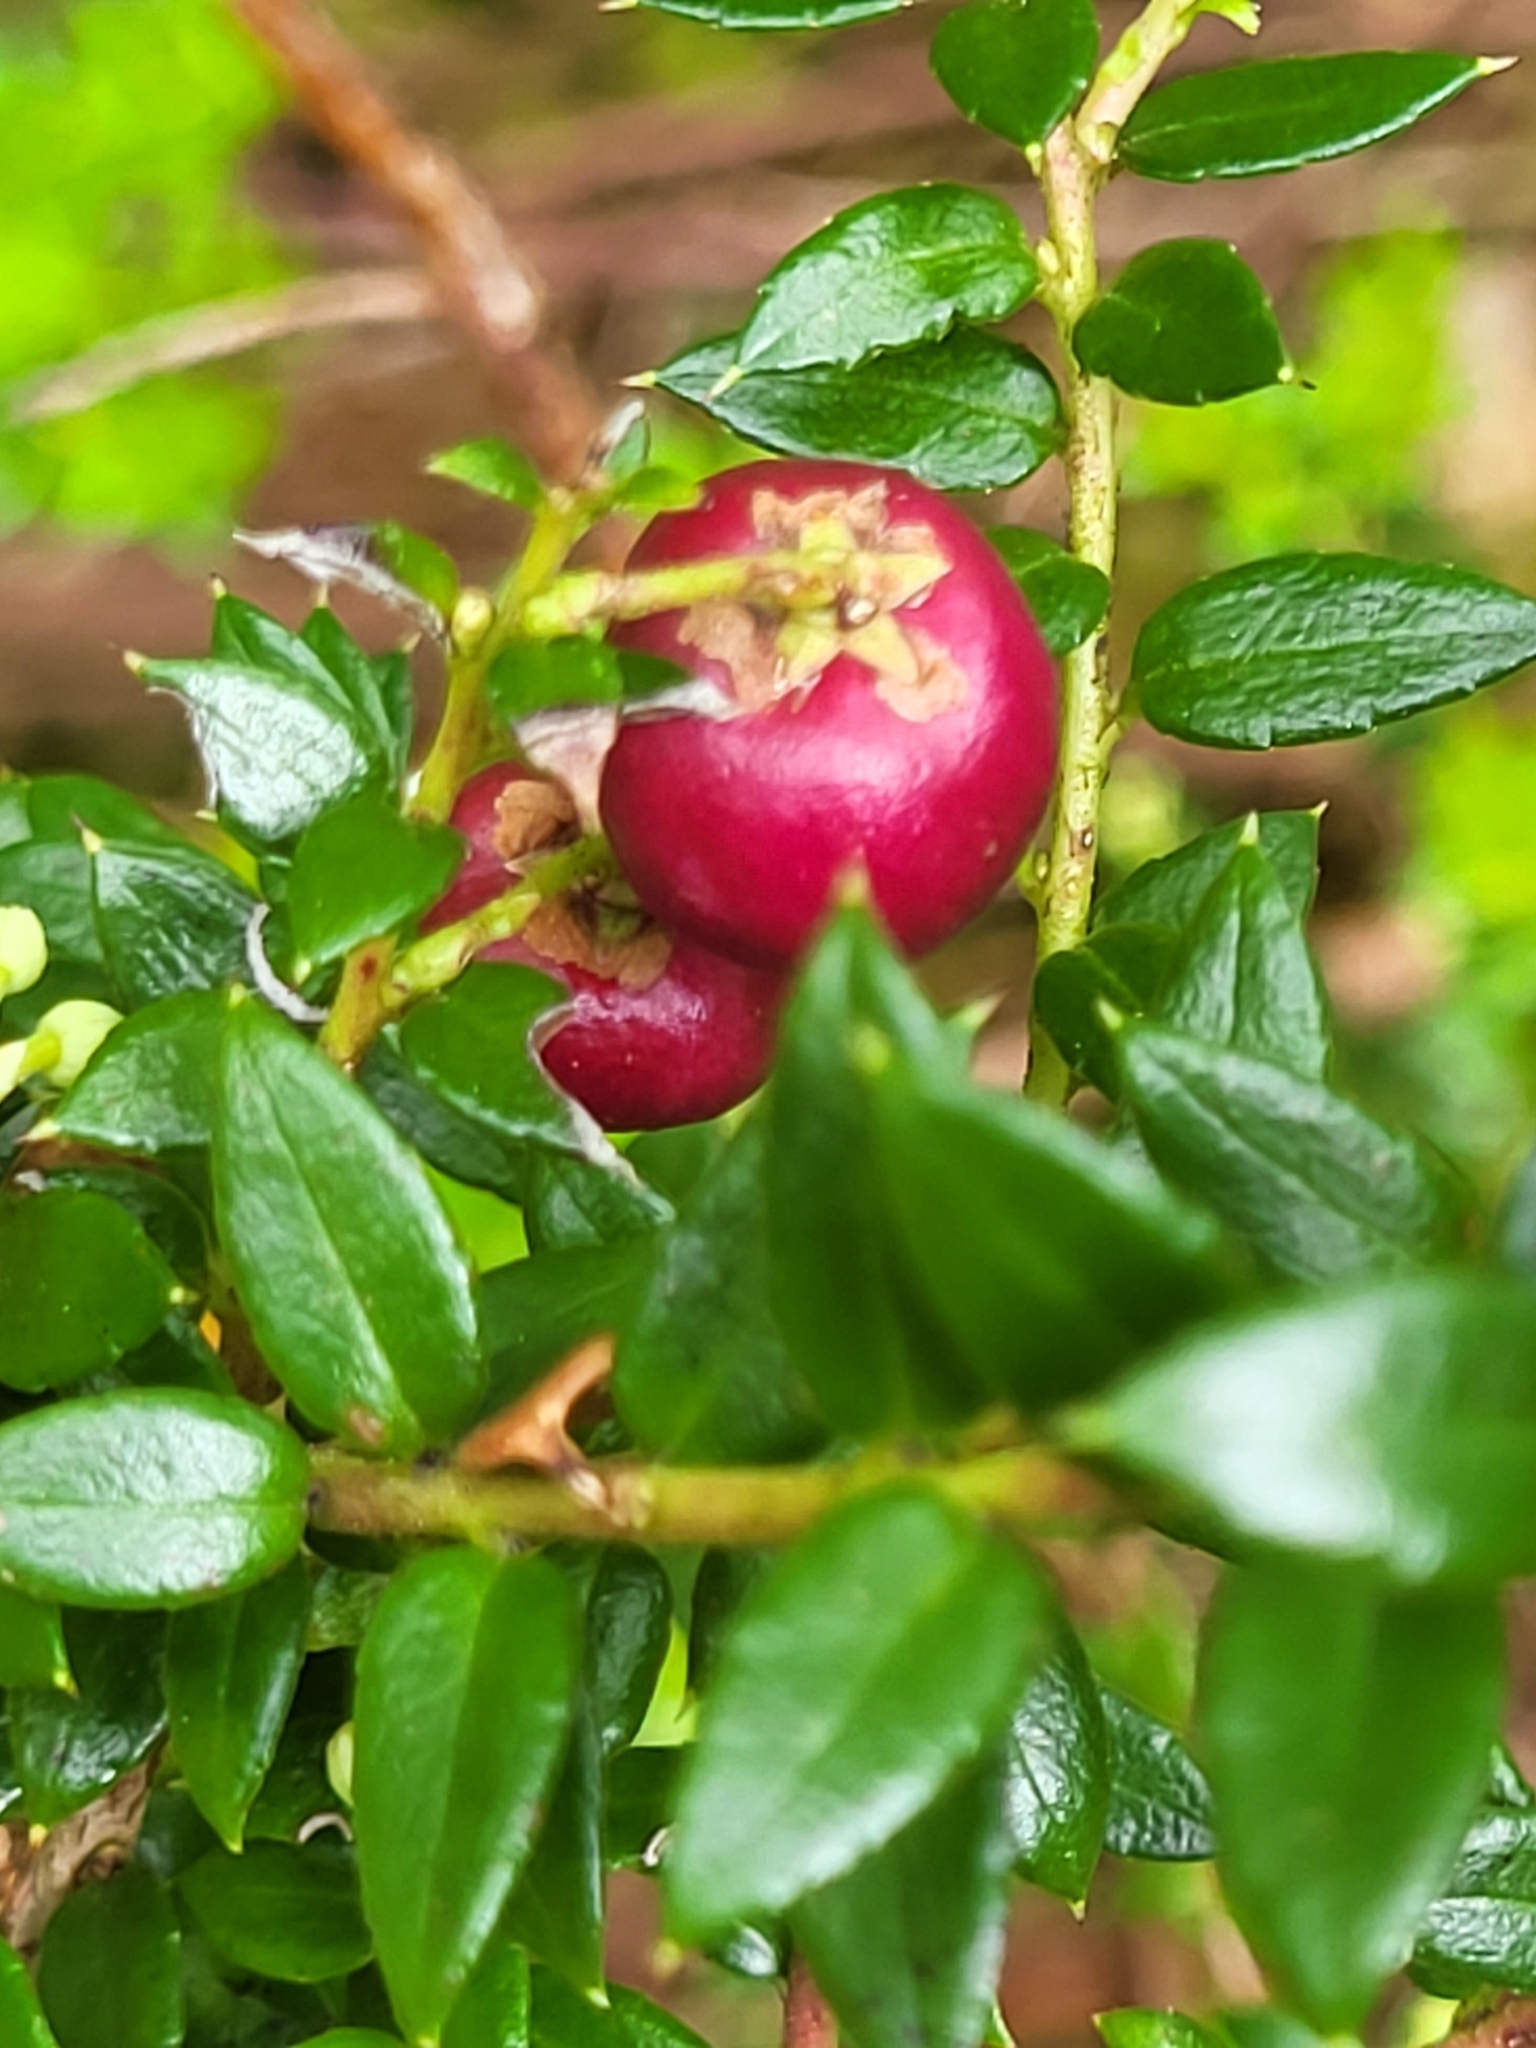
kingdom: Plantae
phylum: Tracheophyta
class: Magnoliopsida
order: Ericales
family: Ericaceae
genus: Gaultheria
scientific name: Gaultheria mucronata
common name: Prickly heath
